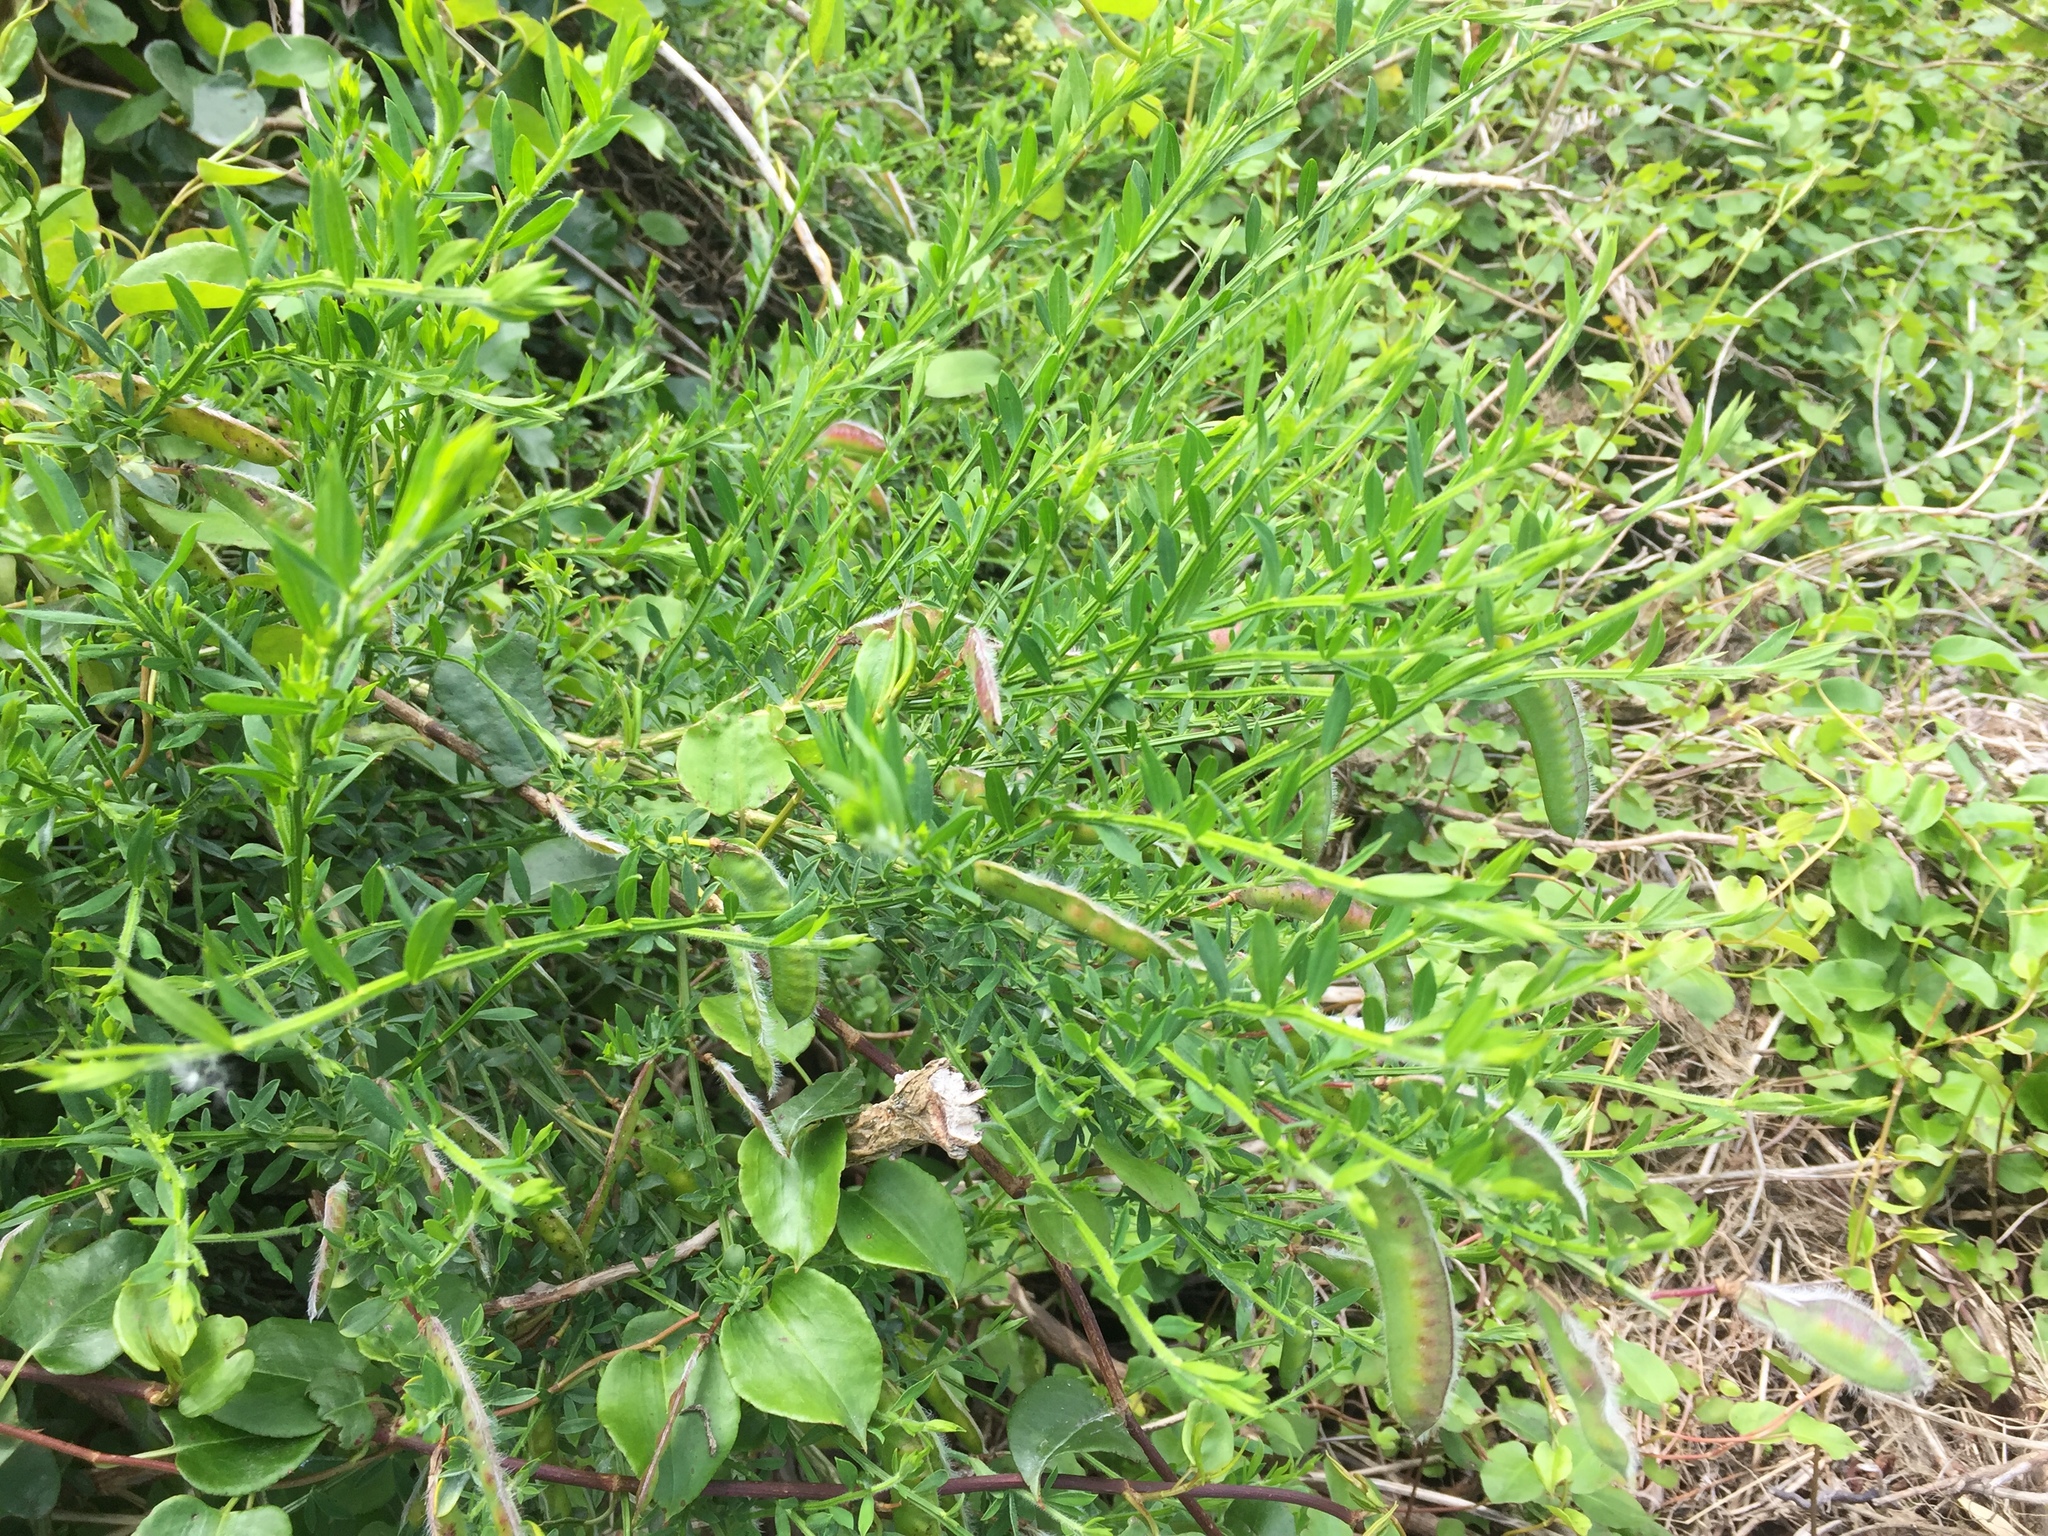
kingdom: Plantae
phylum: Tracheophyta
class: Magnoliopsida
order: Fabales
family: Fabaceae
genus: Cytisus
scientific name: Cytisus scoparius
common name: Scotch broom
